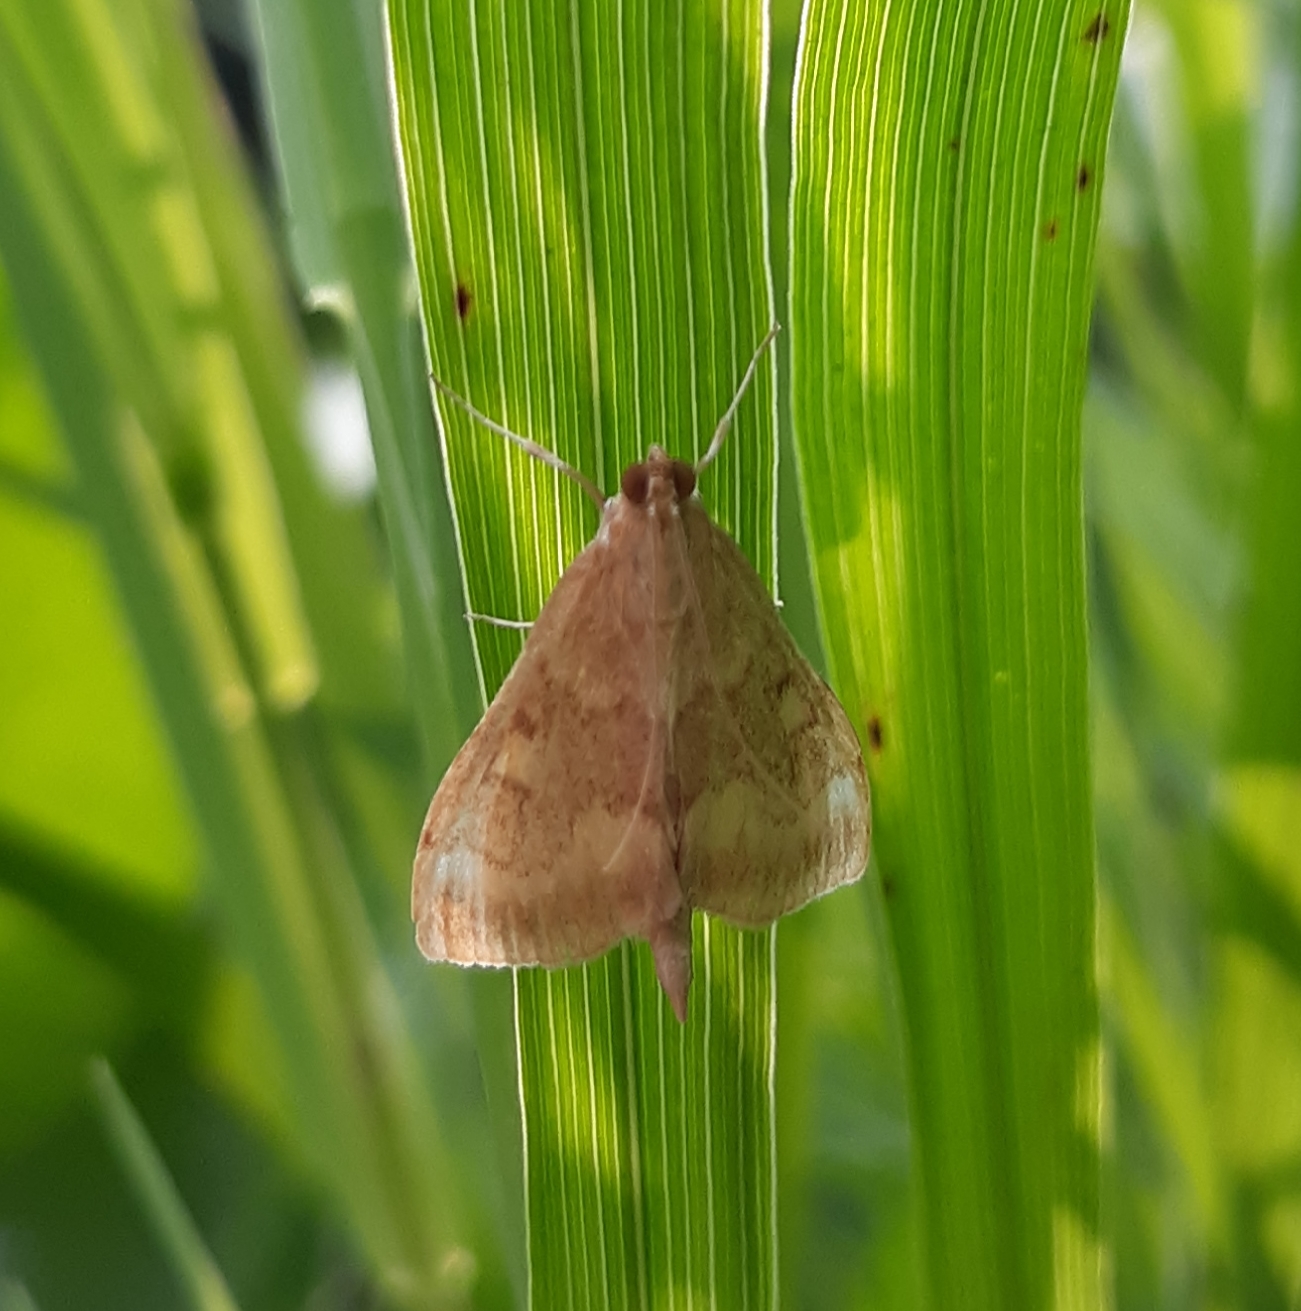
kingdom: Animalia
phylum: Arthropoda
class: Insecta
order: Lepidoptera
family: Crambidae
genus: Achyra
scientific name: Achyra rantalis
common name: Garden webworm
